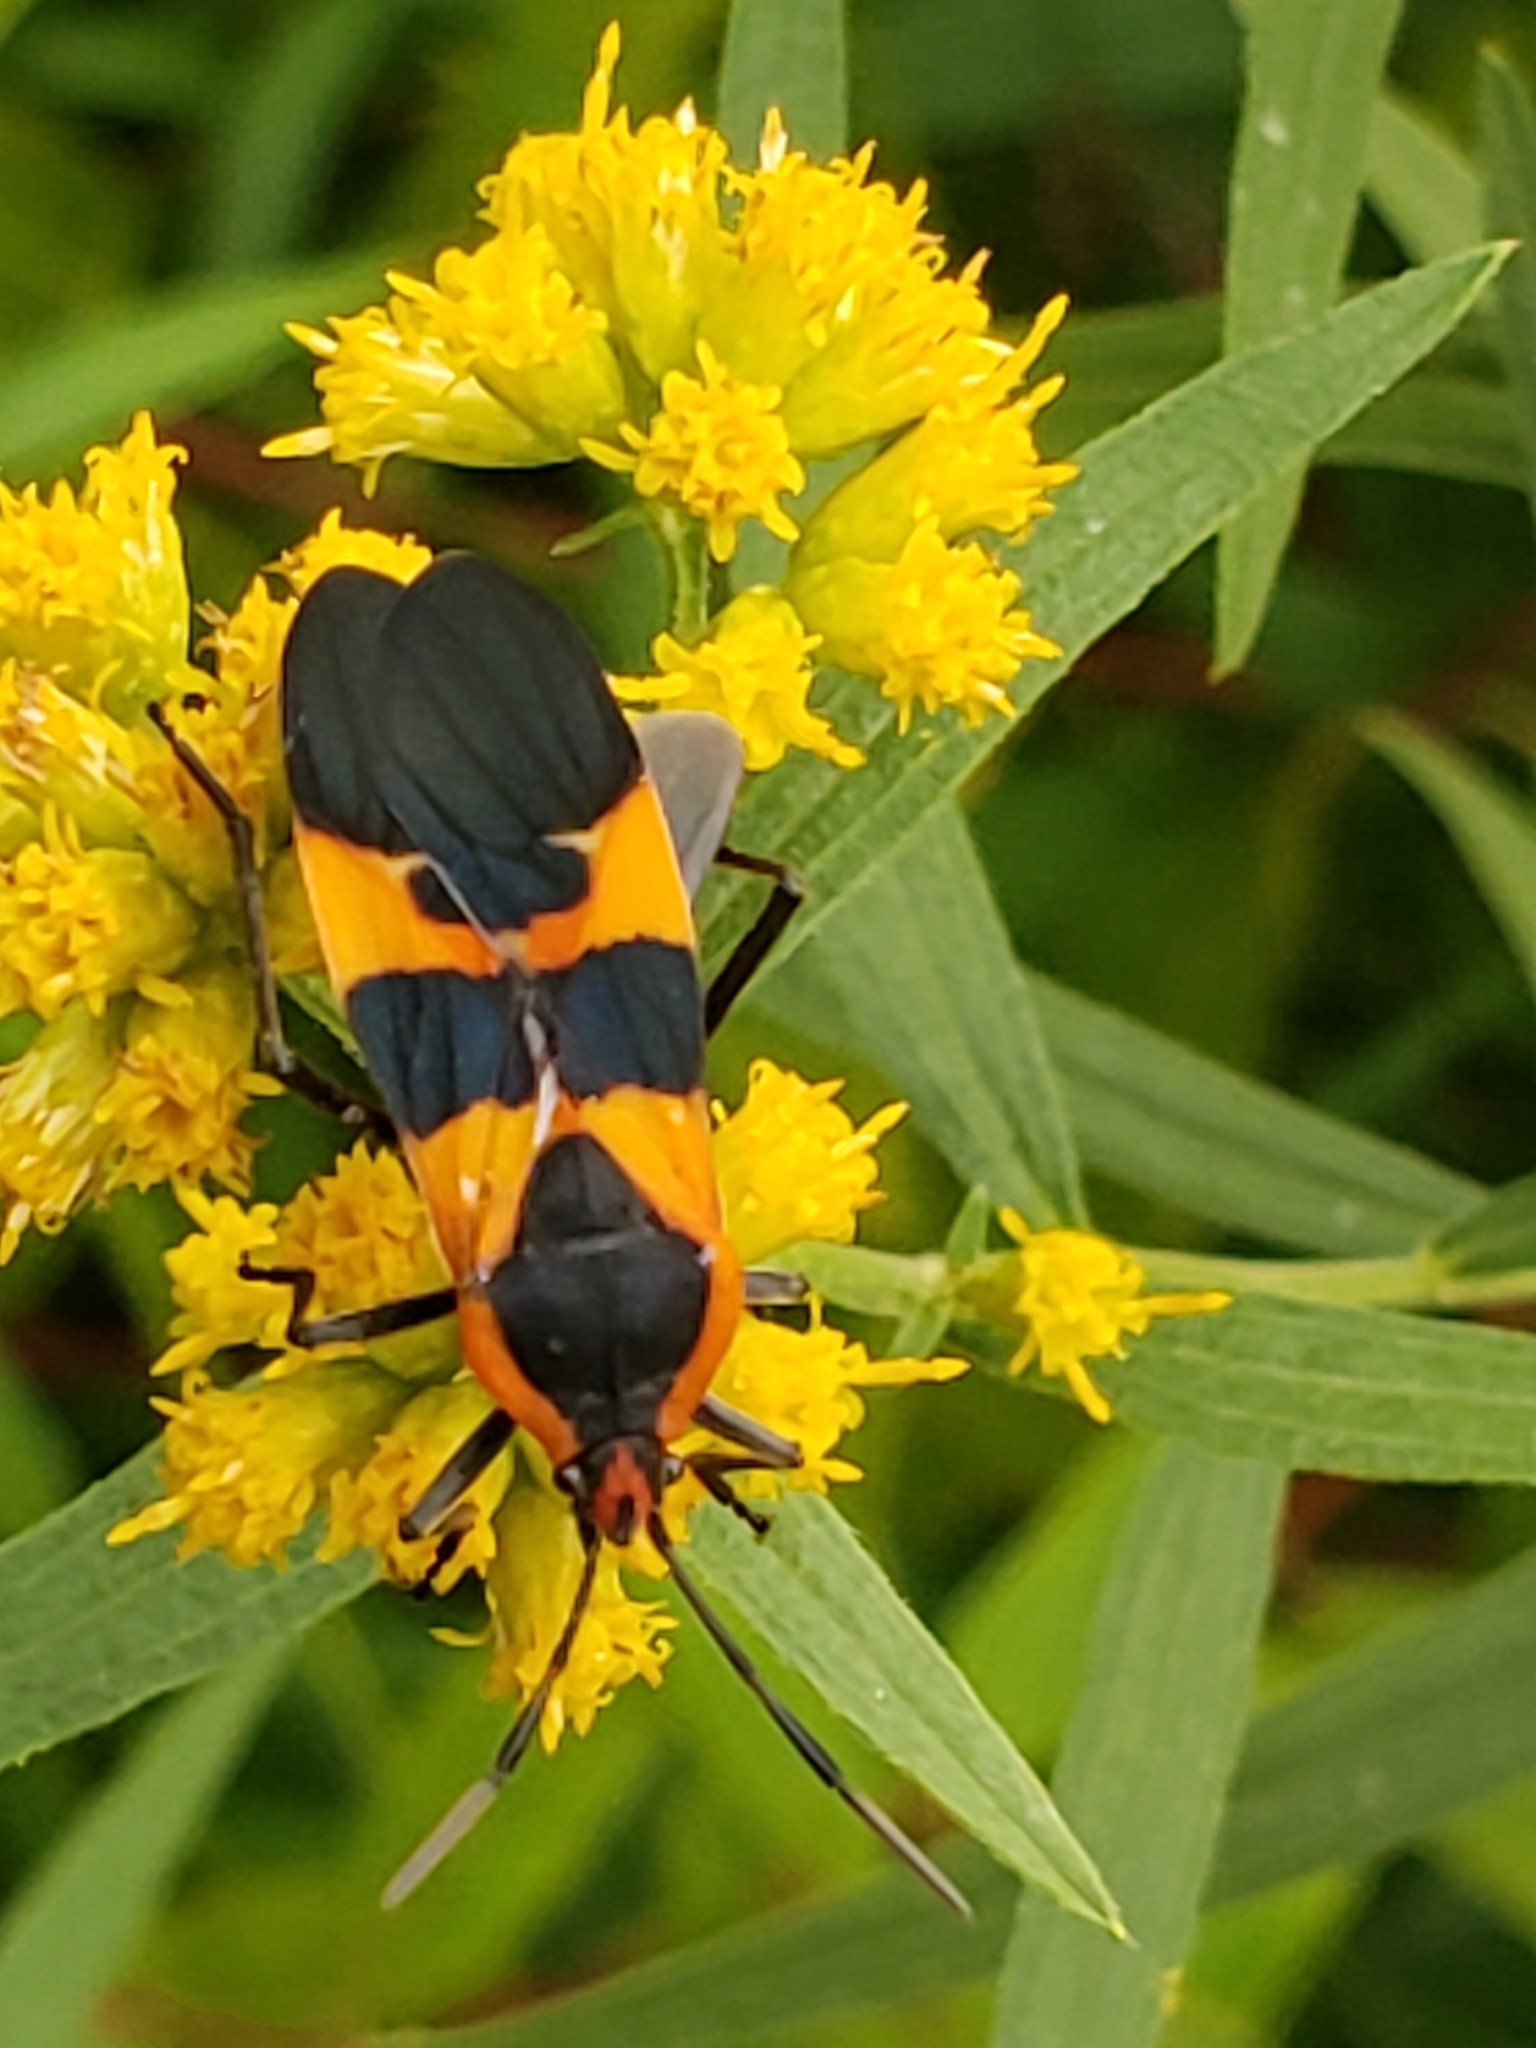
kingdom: Animalia
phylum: Arthropoda
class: Insecta
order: Hemiptera
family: Lygaeidae
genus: Oncopeltus
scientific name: Oncopeltus fasciatus
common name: Large milkweed bug
